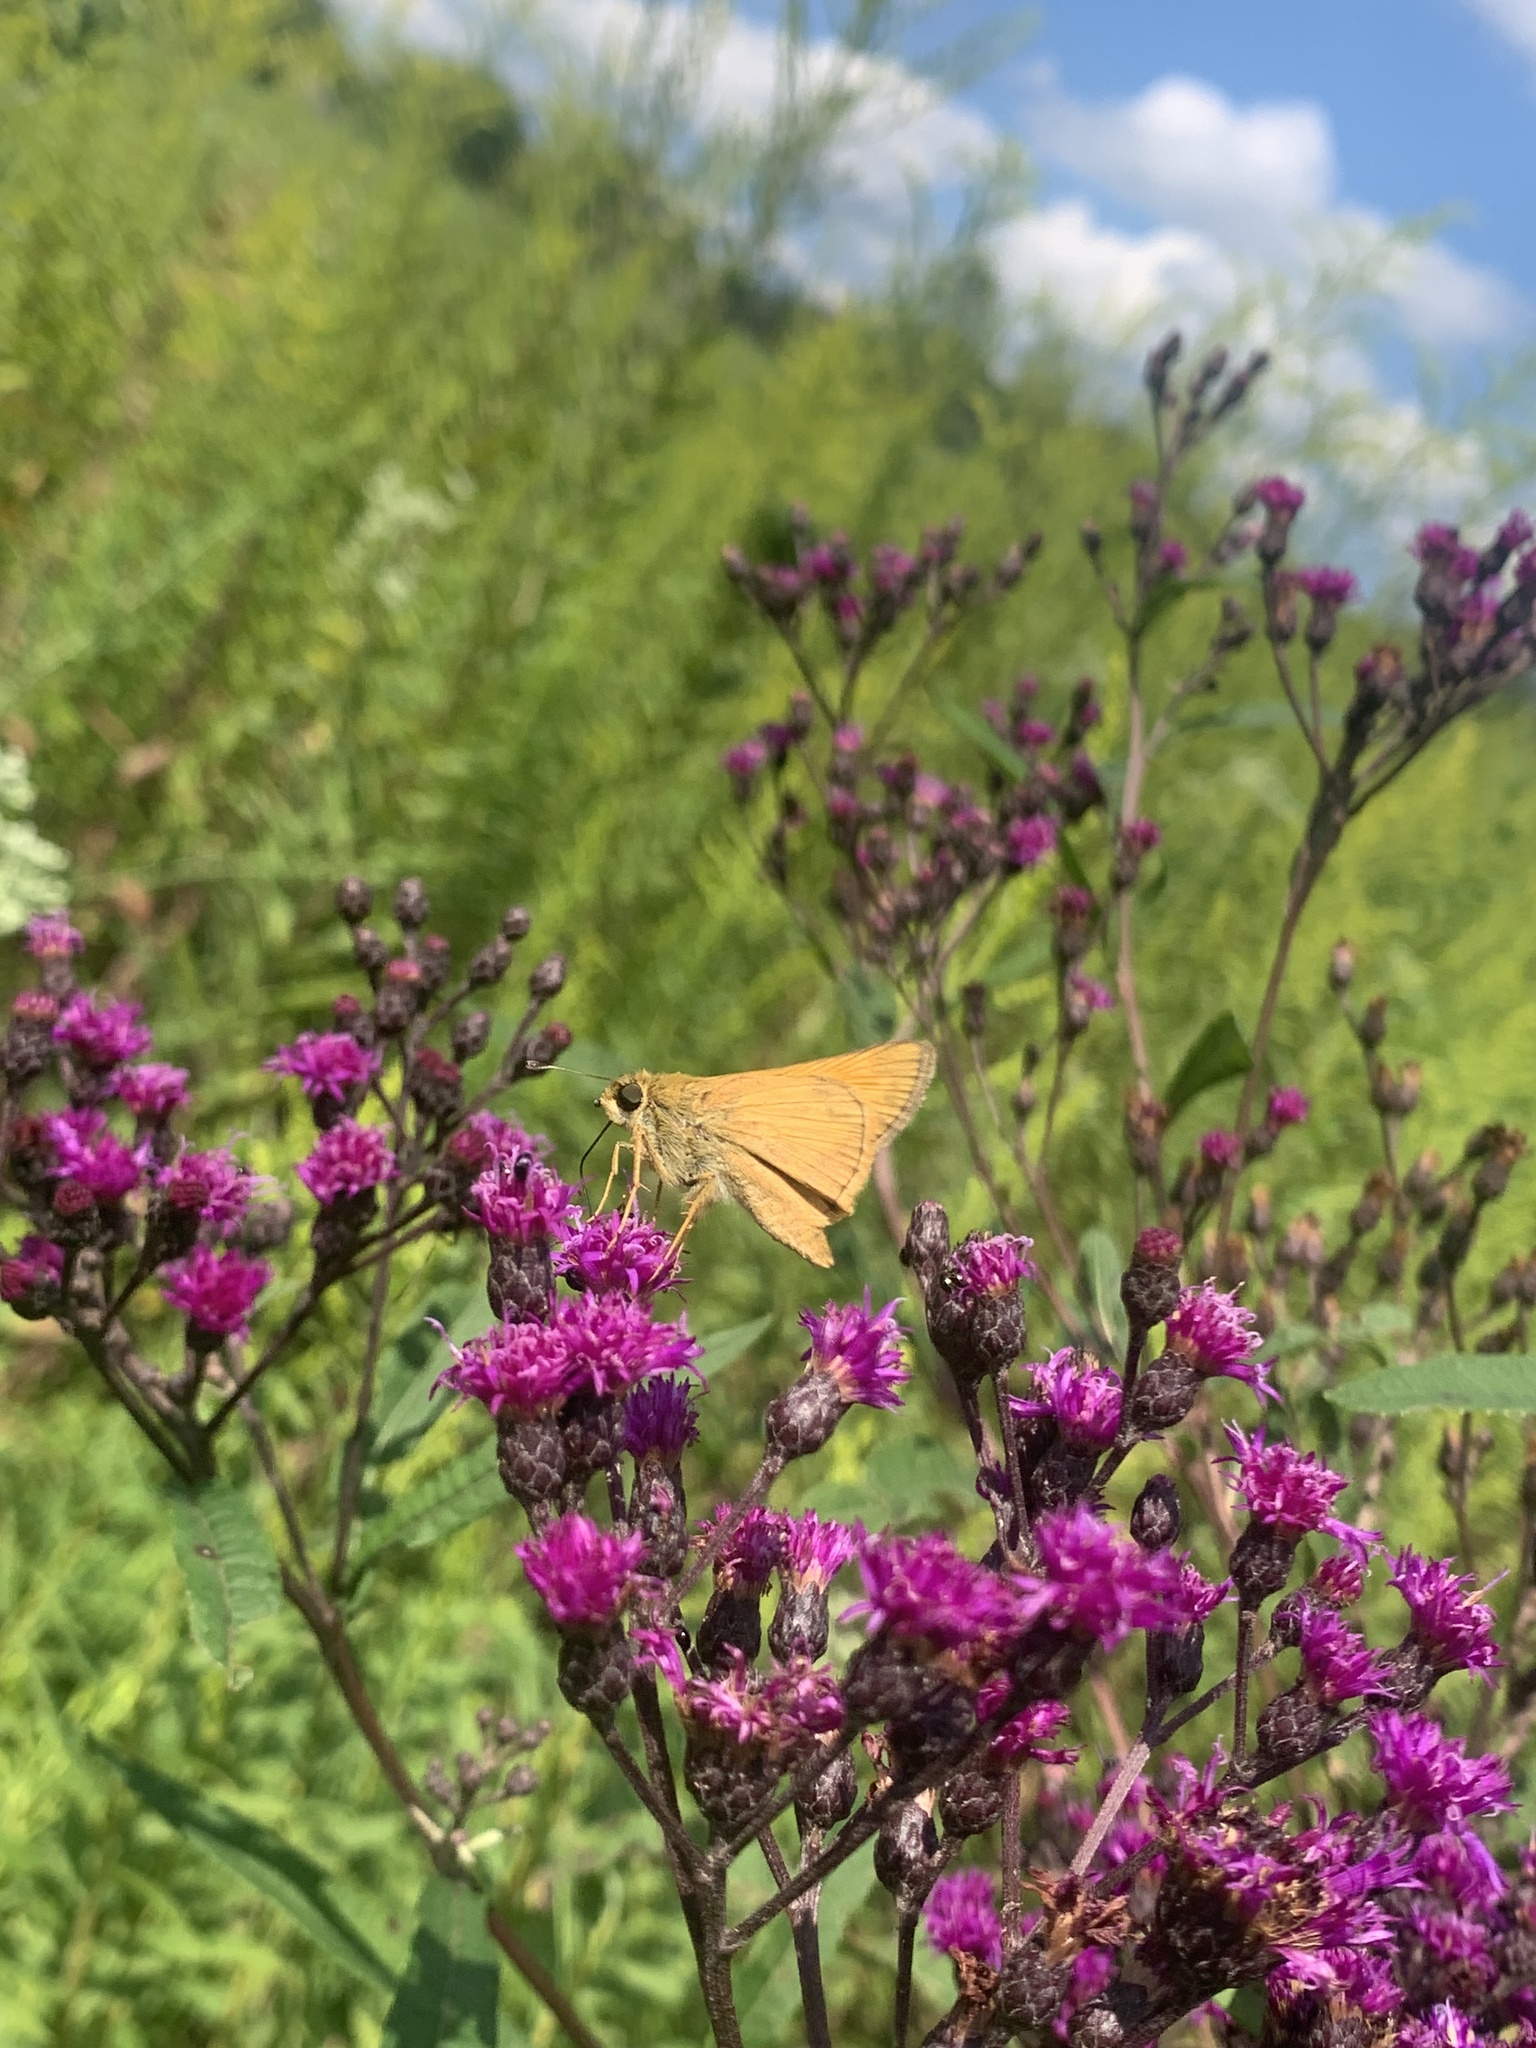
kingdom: Animalia
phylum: Arthropoda
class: Insecta
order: Lepidoptera
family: Hesperiidae
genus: Atalopedes
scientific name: Atalopedes
